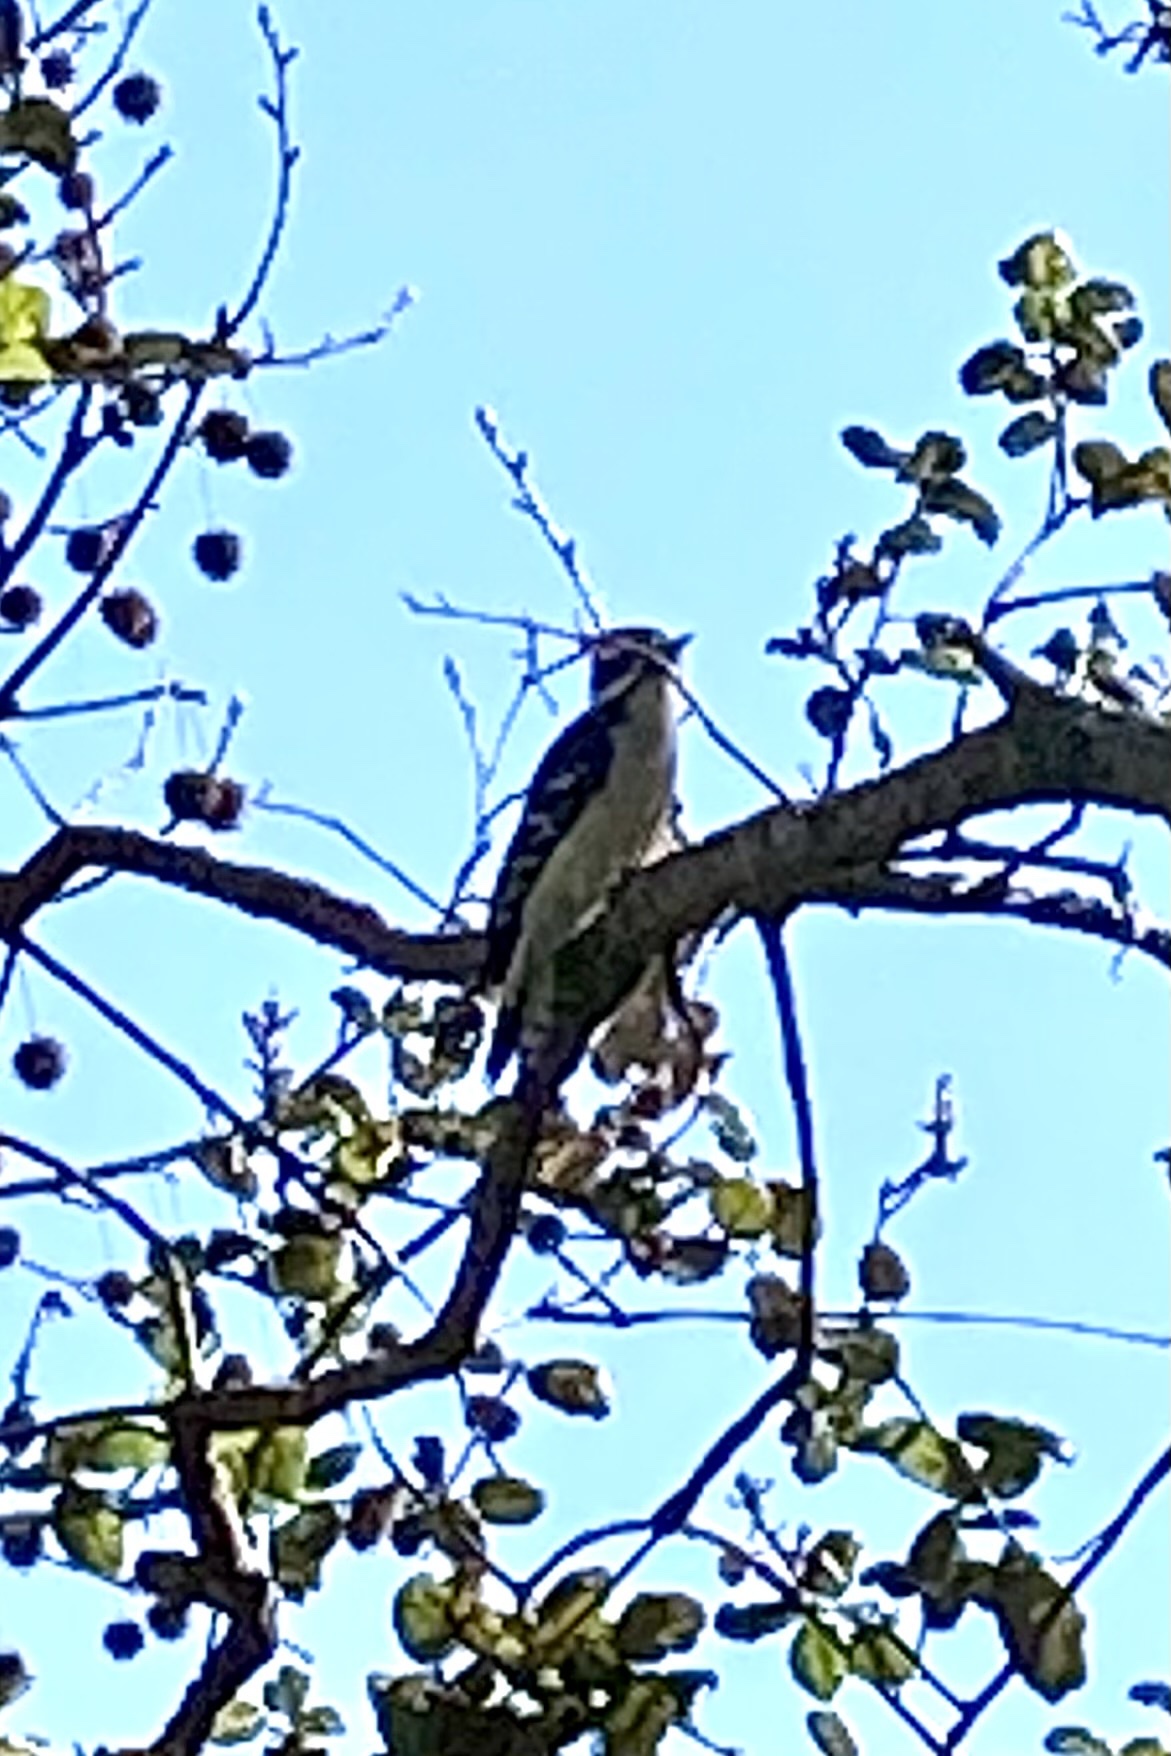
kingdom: Animalia
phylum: Chordata
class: Aves
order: Piciformes
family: Picidae
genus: Dryobates
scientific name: Dryobates pubescens
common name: Downy woodpecker
